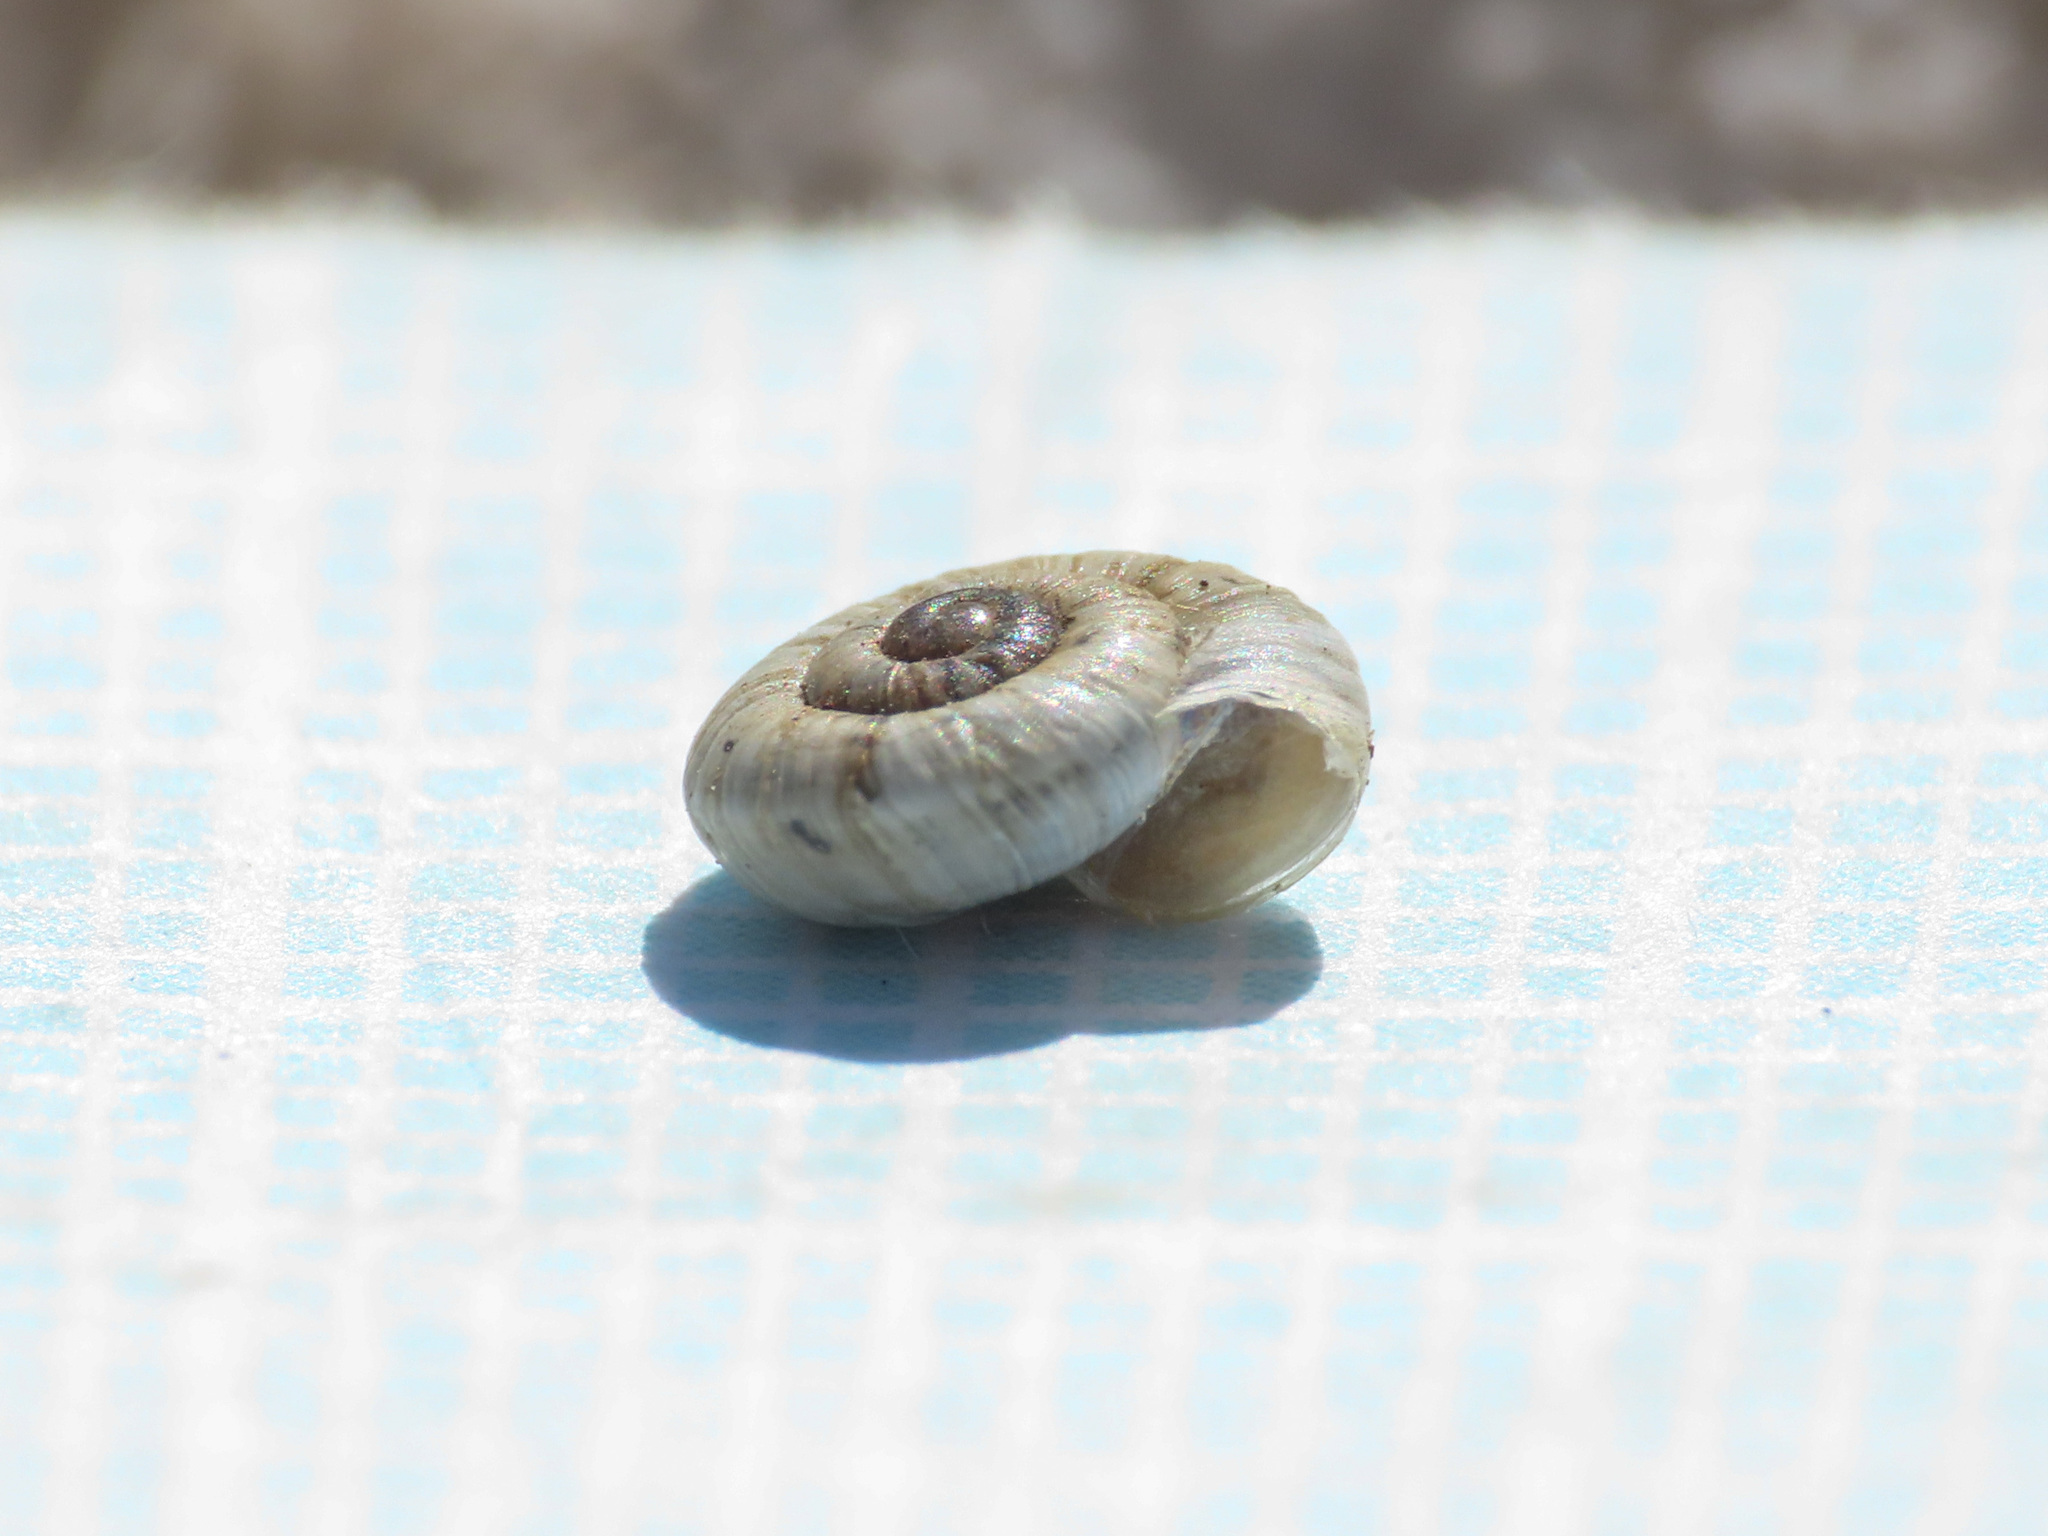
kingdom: Animalia
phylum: Mollusca
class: Gastropoda
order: Stylommatophora
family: Geomitridae
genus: Xerogyra
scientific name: Xerogyra fiorii
